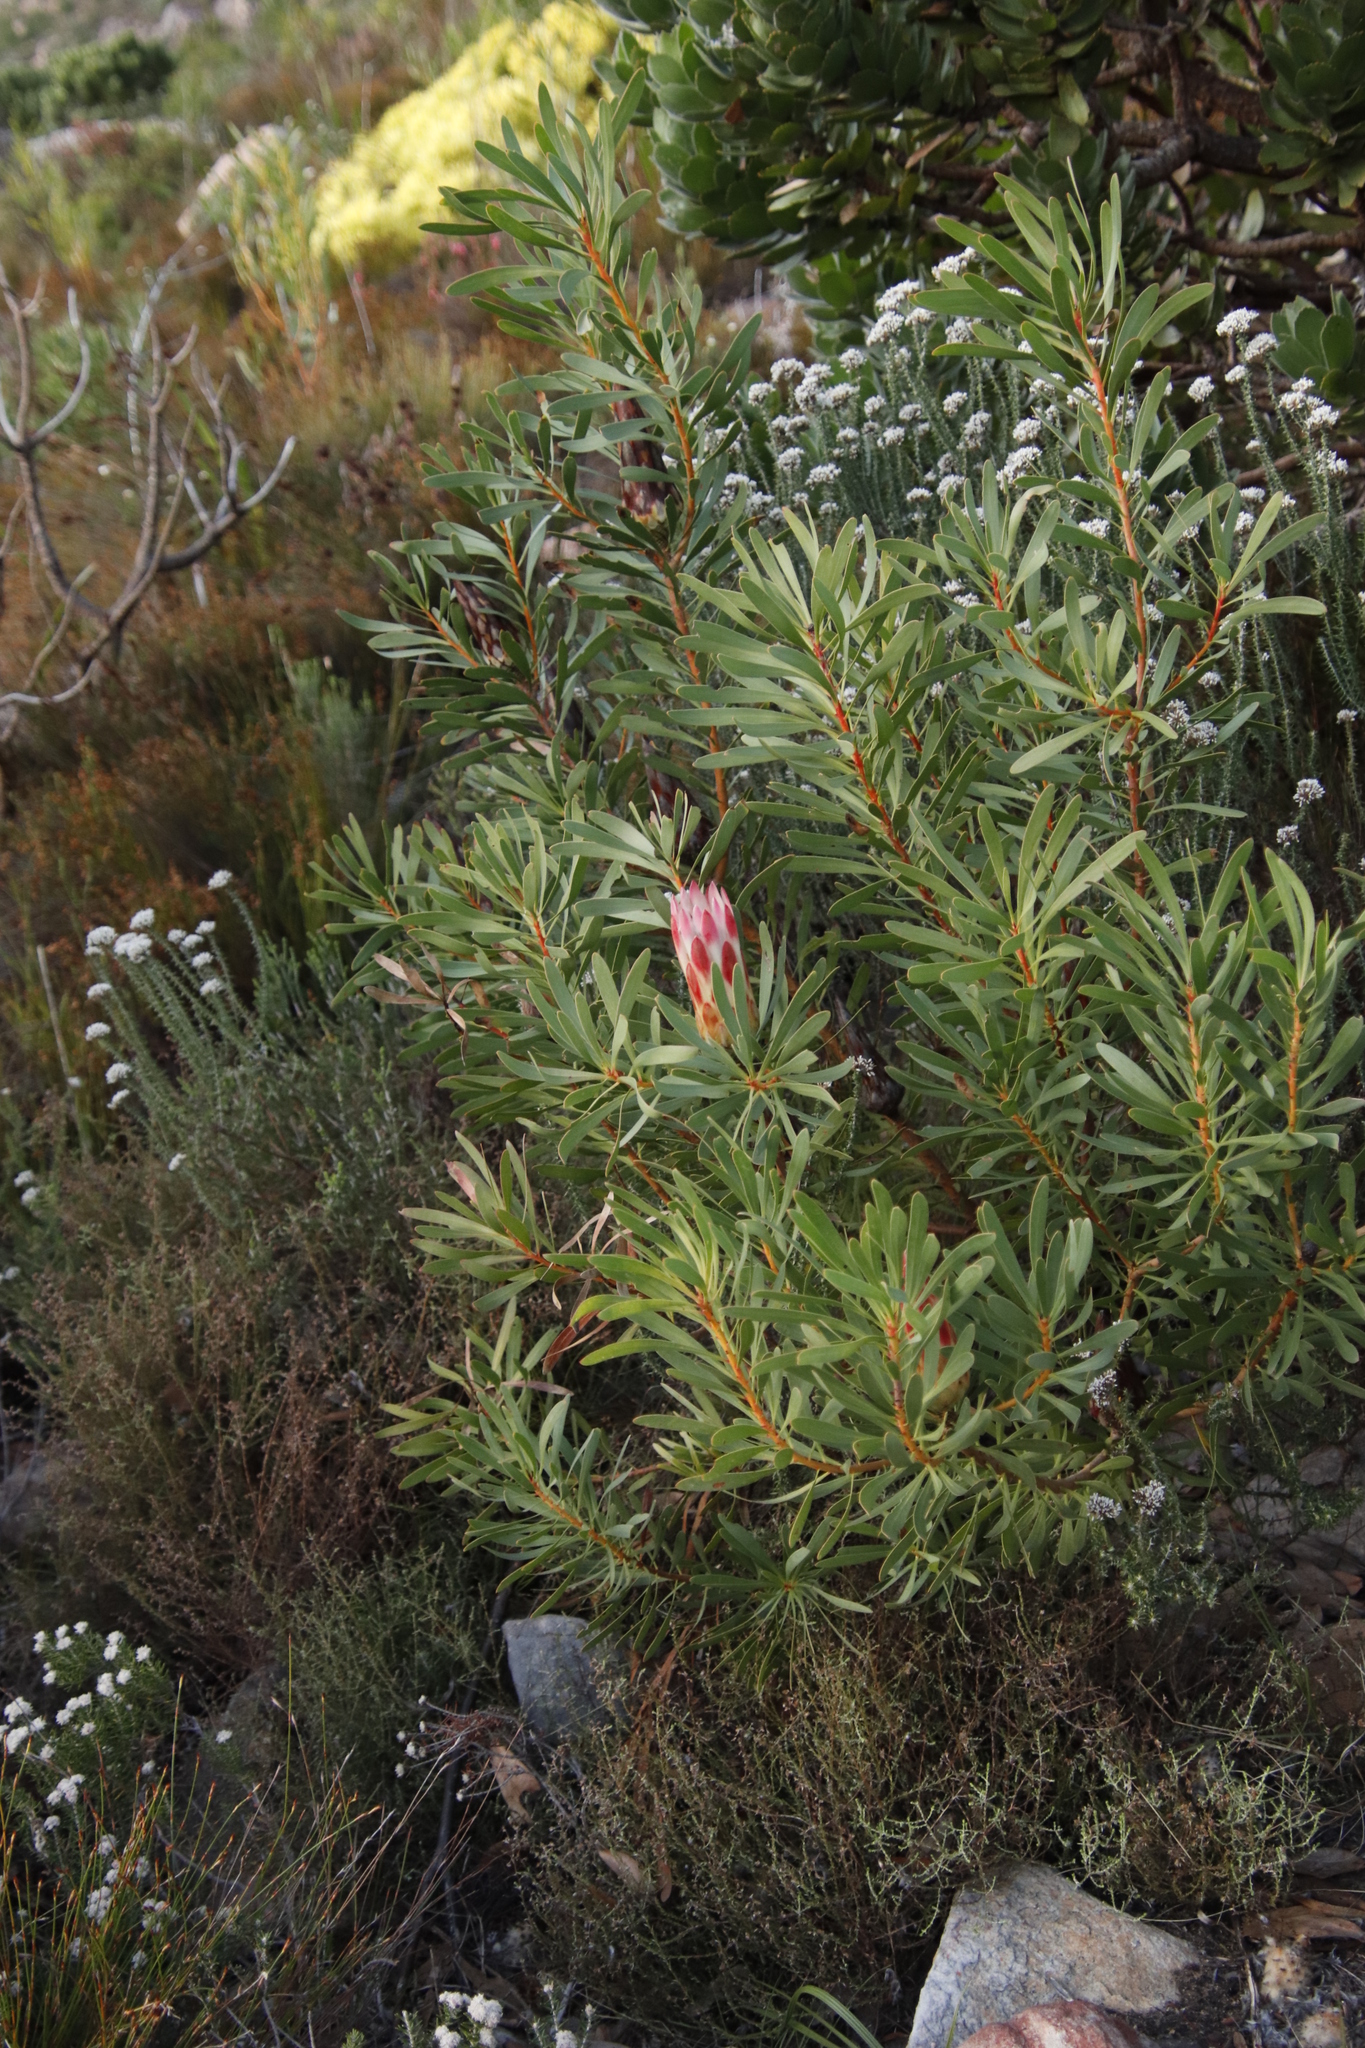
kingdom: Plantae
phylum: Tracheophyta
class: Magnoliopsida
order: Proteales
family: Proteaceae
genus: Protea
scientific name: Protea repens
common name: Sugarbush
